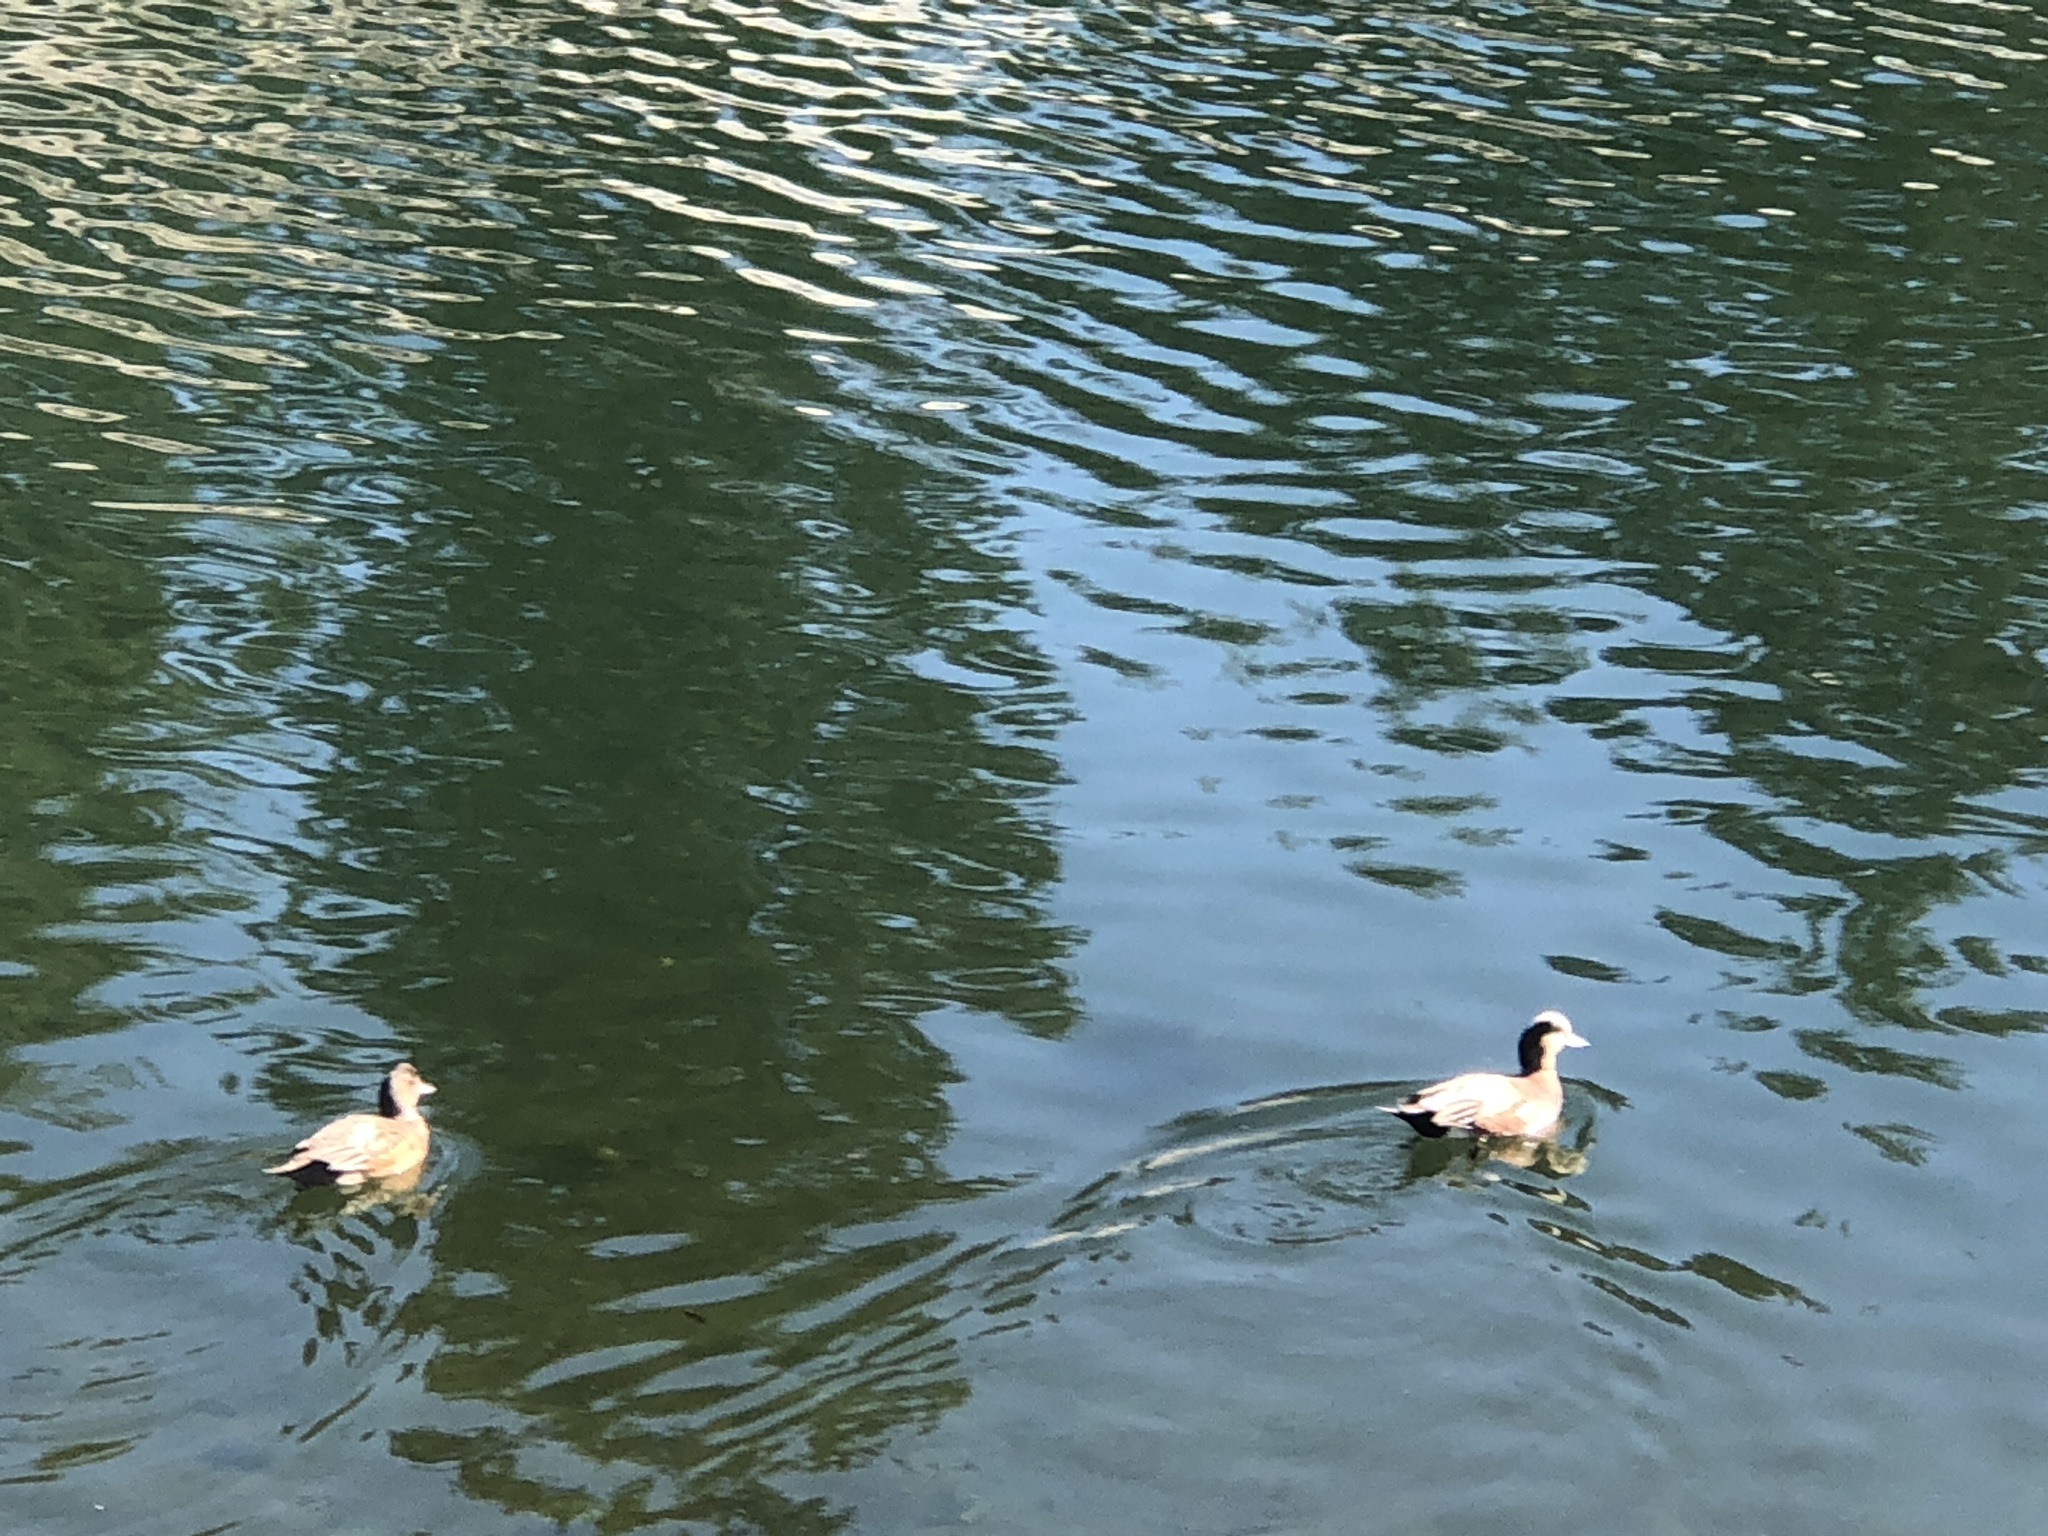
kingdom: Animalia
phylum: Chordata
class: Aves
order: Anseriformes
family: Anatidae
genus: Mareca
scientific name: Mareca americana
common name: American wigeon
